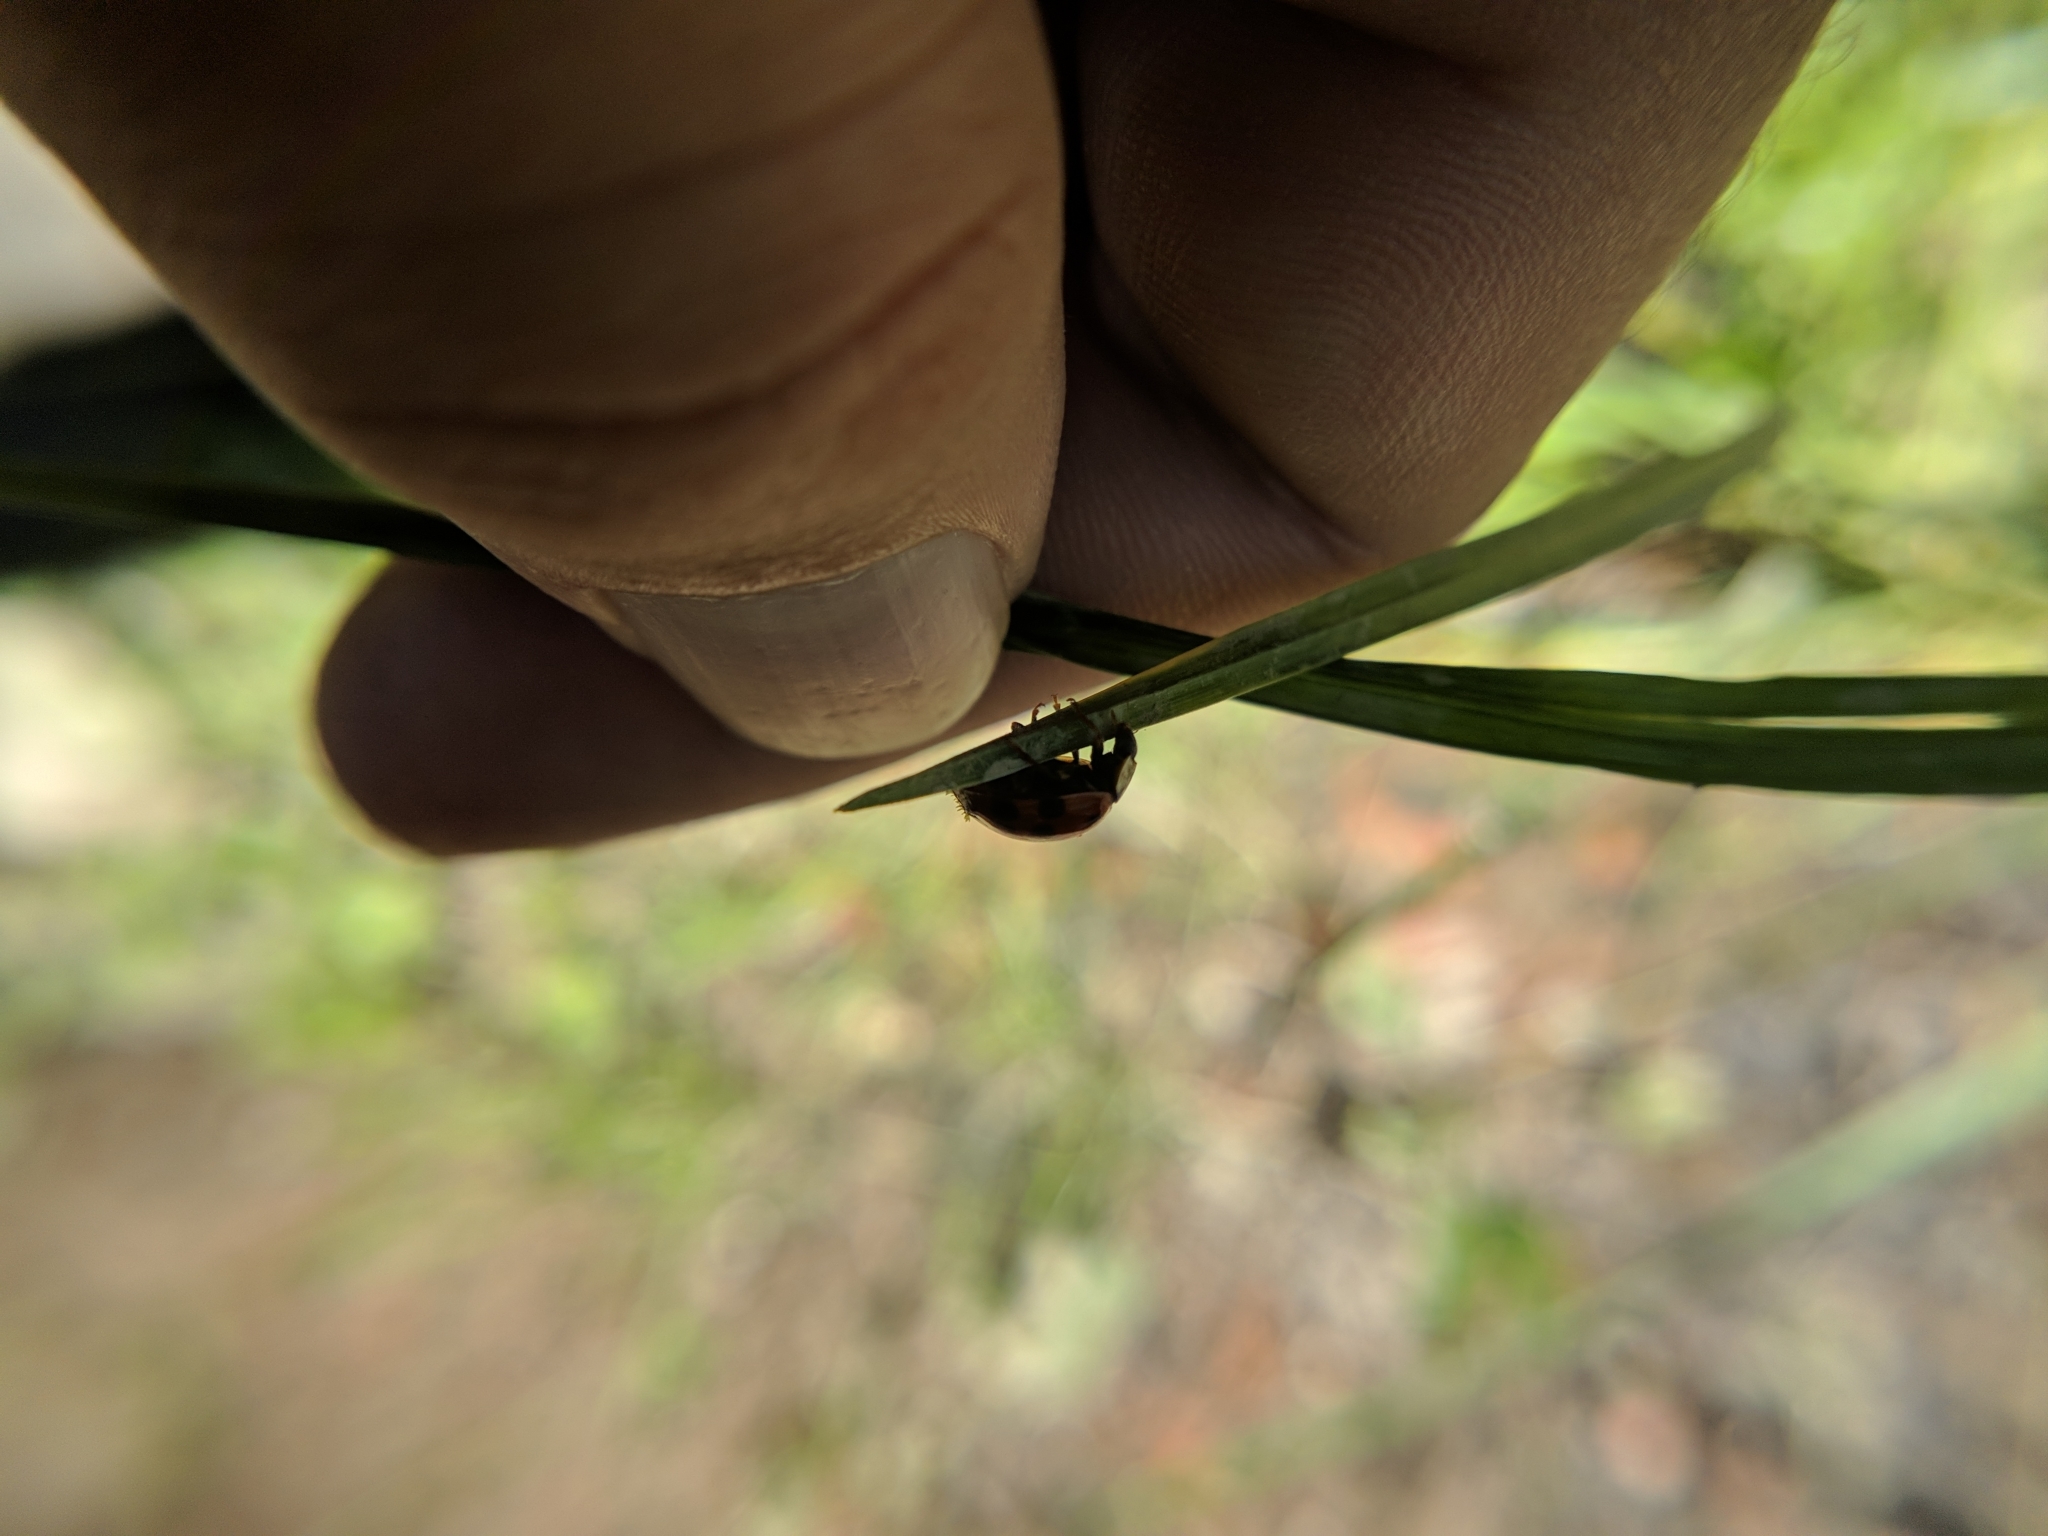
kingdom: Fungi
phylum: Ascomycota
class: Laboulbeniomycetes
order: Laboulbeniales
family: Laboulbeniaceae
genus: Hesperomyces
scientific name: Hesperomyces harmoniae
